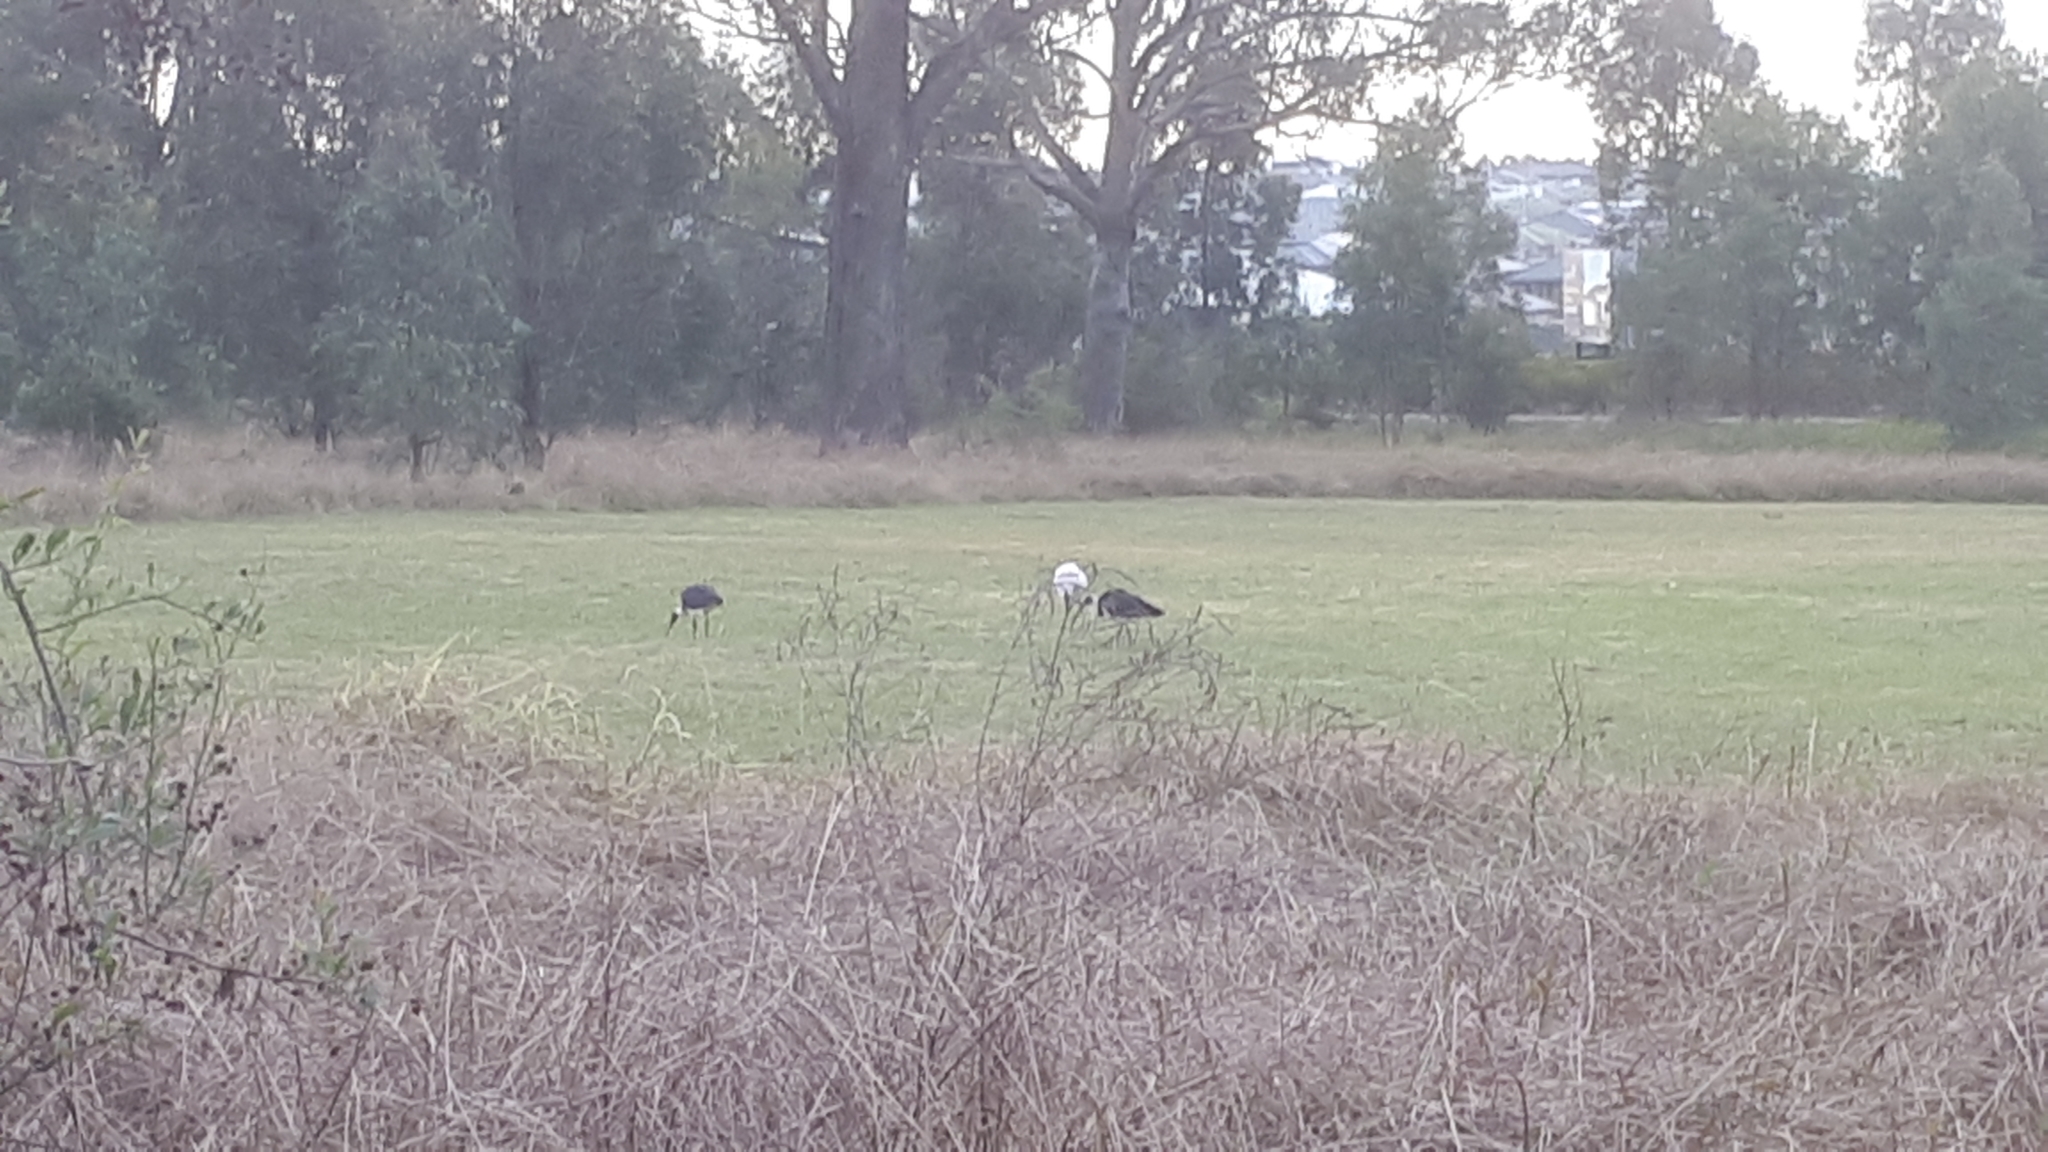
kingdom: Animalia
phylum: Chordata
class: Aves
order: Pelecaniformes
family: Threskiornithidae
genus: Threskiornis
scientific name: Threskiornis spinicollis
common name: Straw-necked ibis
